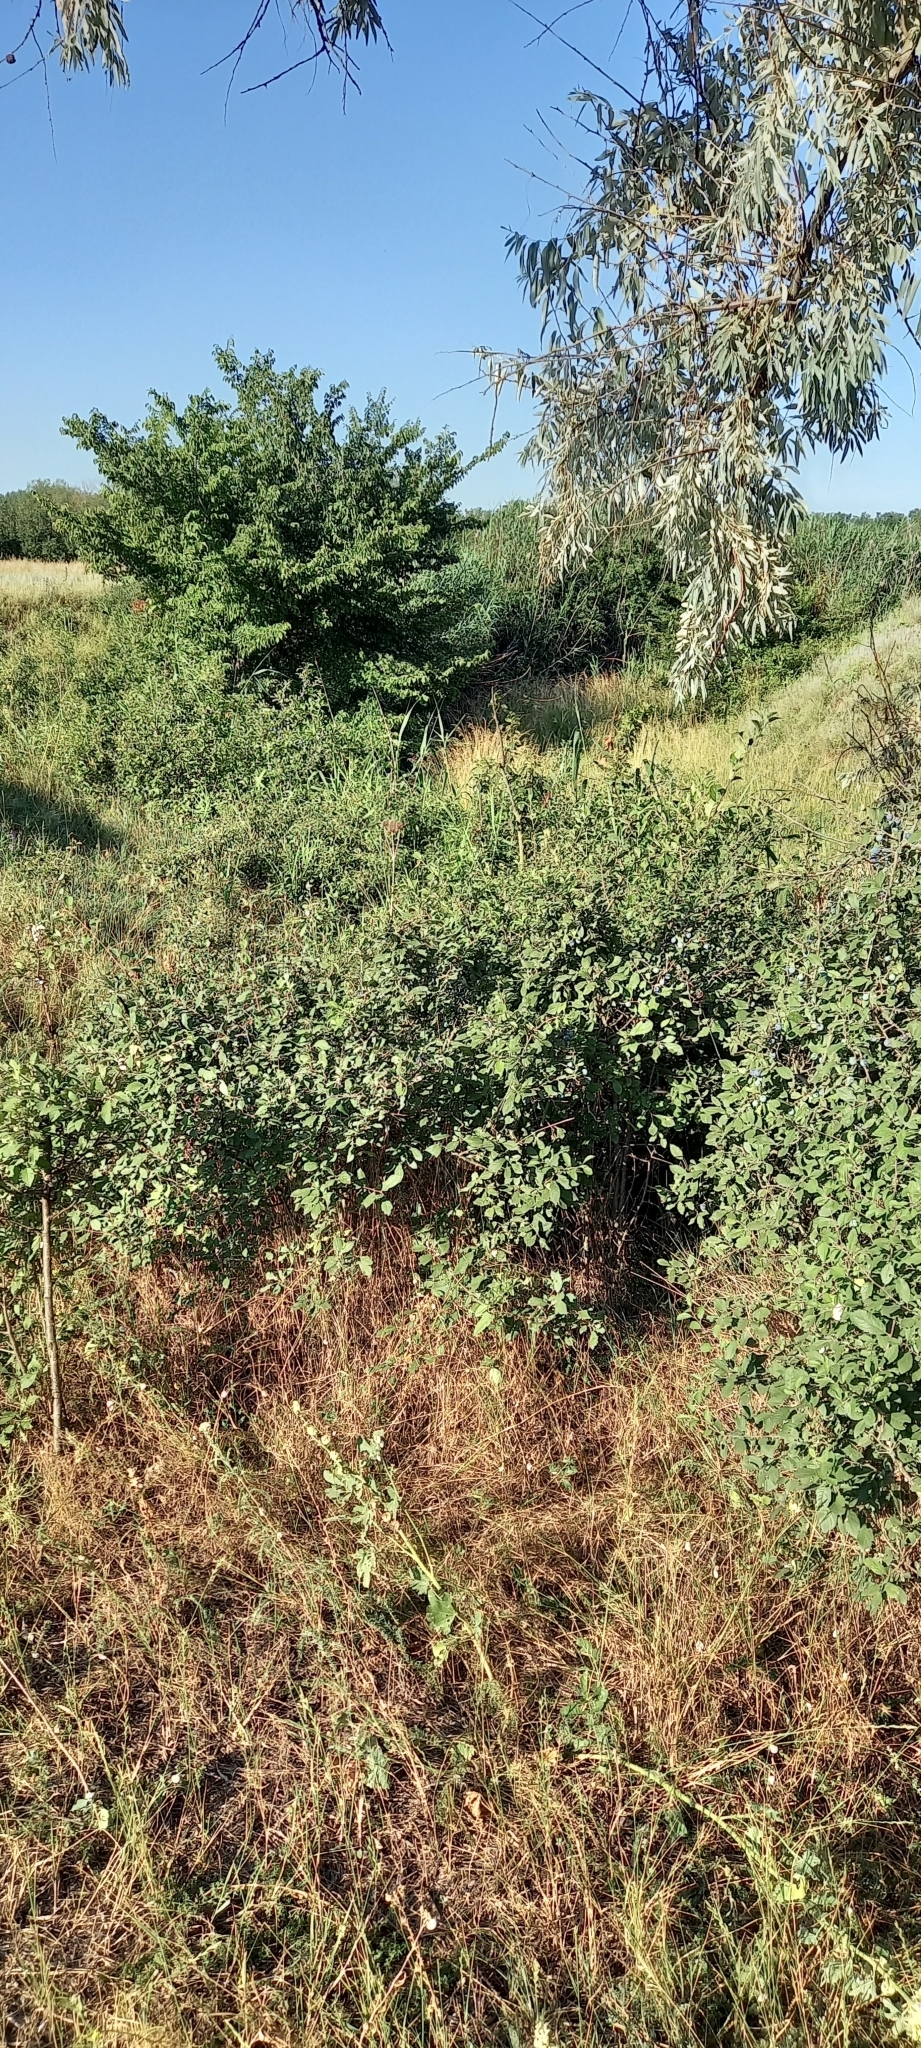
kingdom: Plantae
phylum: Tracheophyta
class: Magnoliopsida
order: Rosales
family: Rosaceae
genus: Prunus
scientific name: Prunus spinosa
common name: Blackthorn
